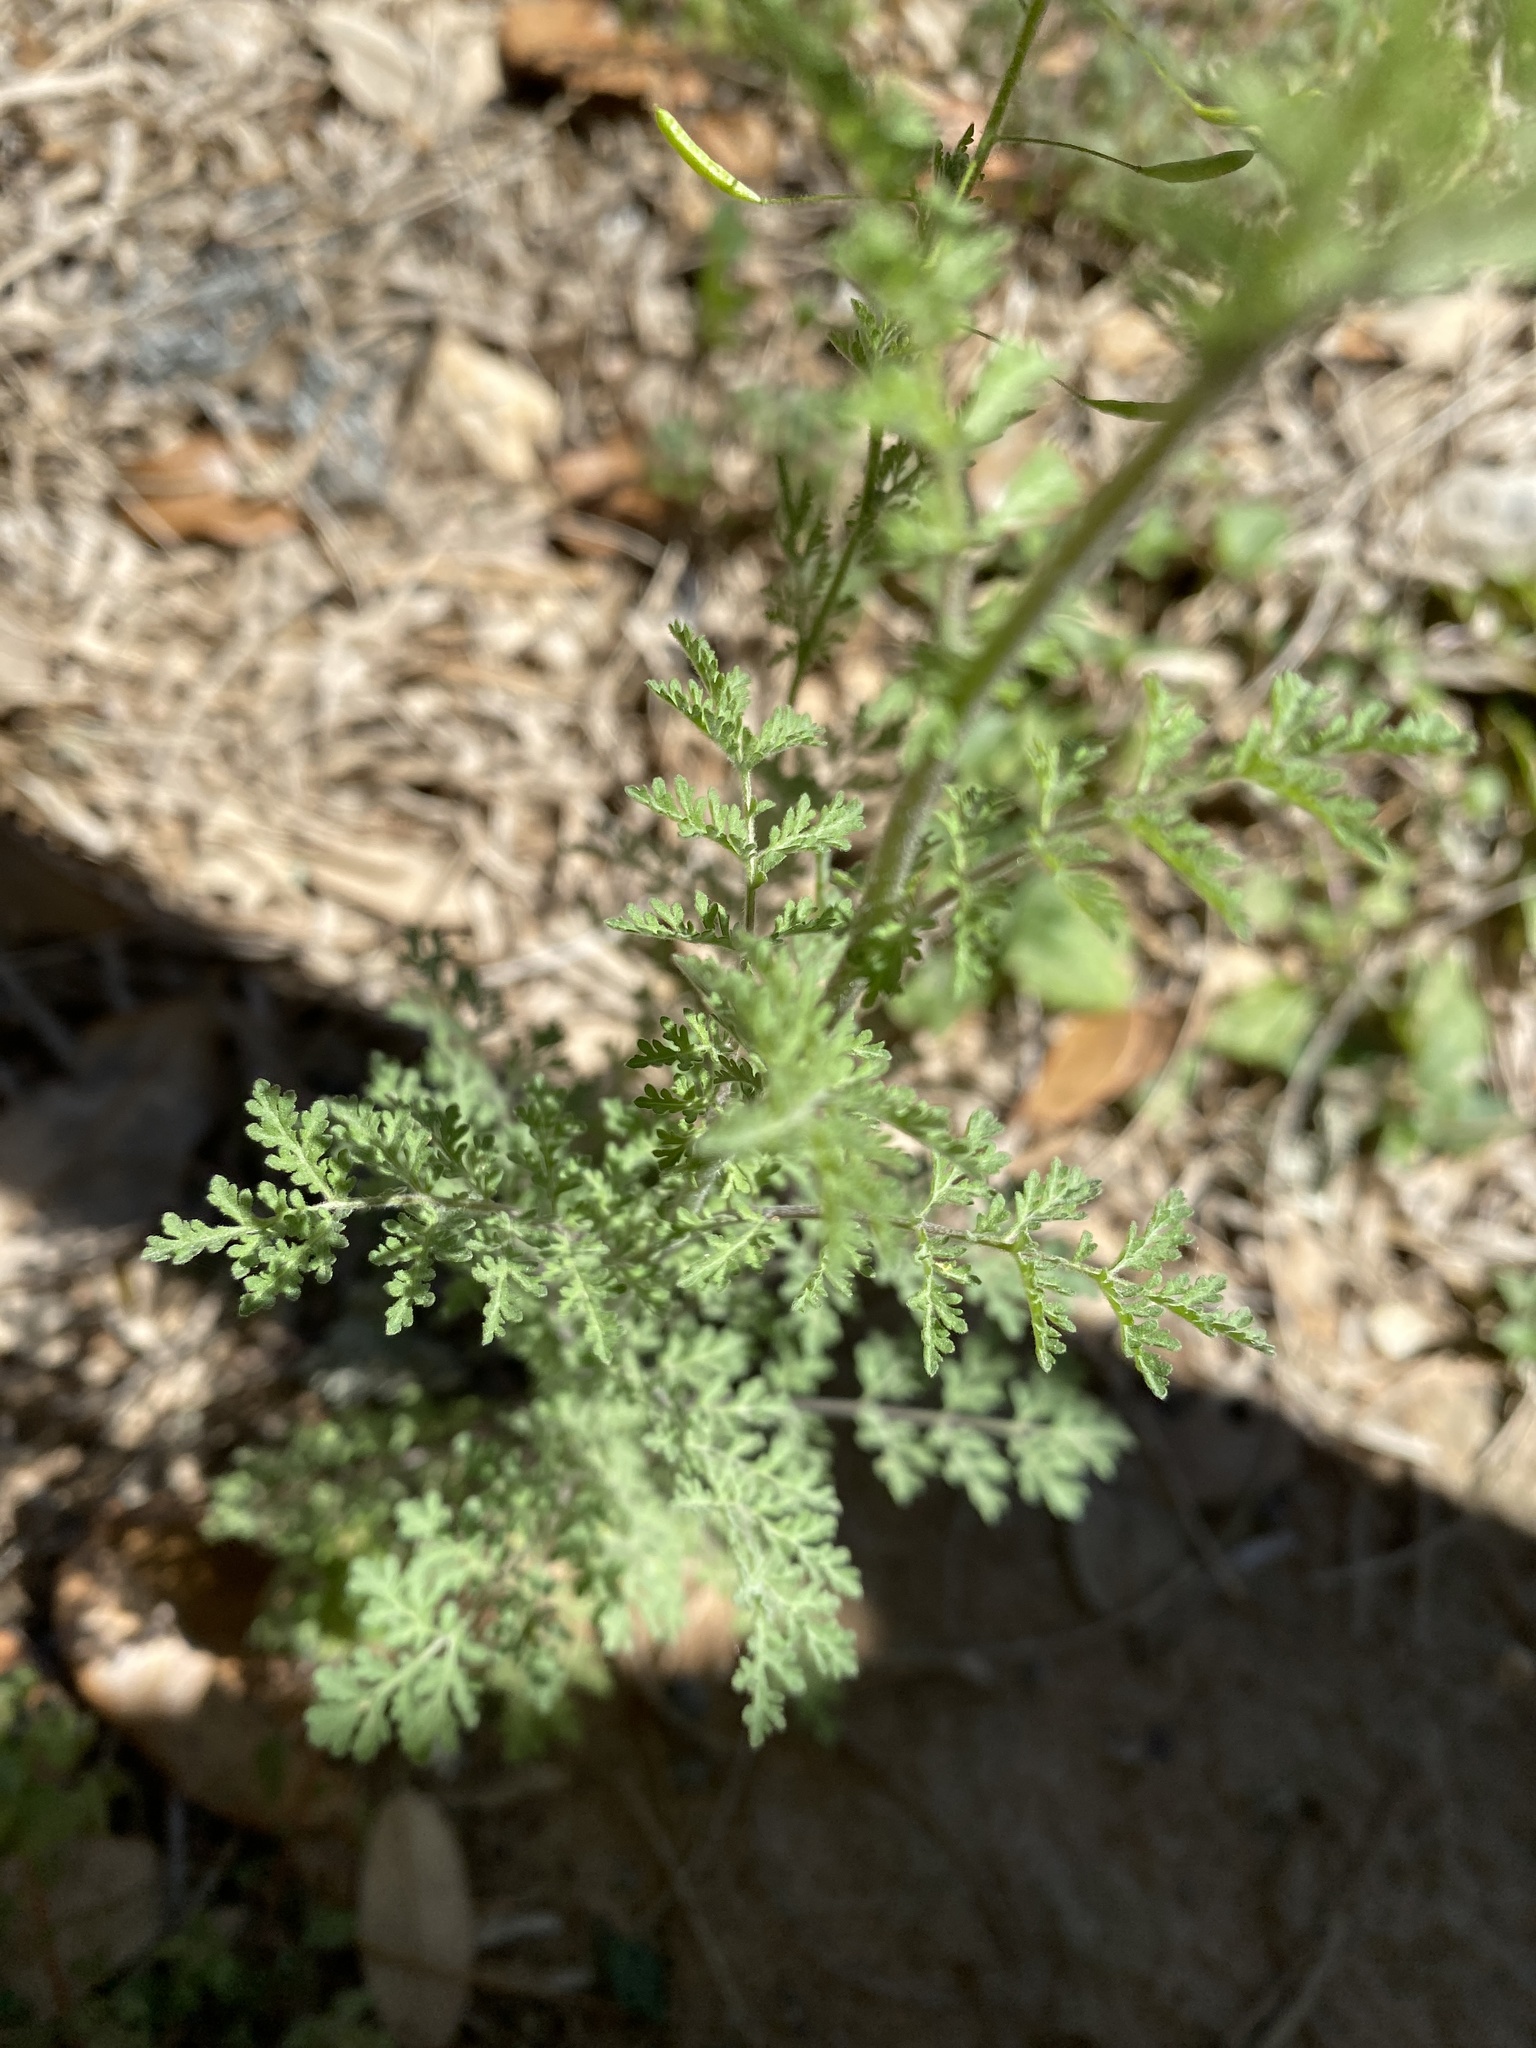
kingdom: Plantae
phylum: Tracheophyta
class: Magnoliopsida
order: Brassicales
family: Brassicaceae
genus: Descurainia
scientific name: Descurainia pinnata
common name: Western tansy mustard
